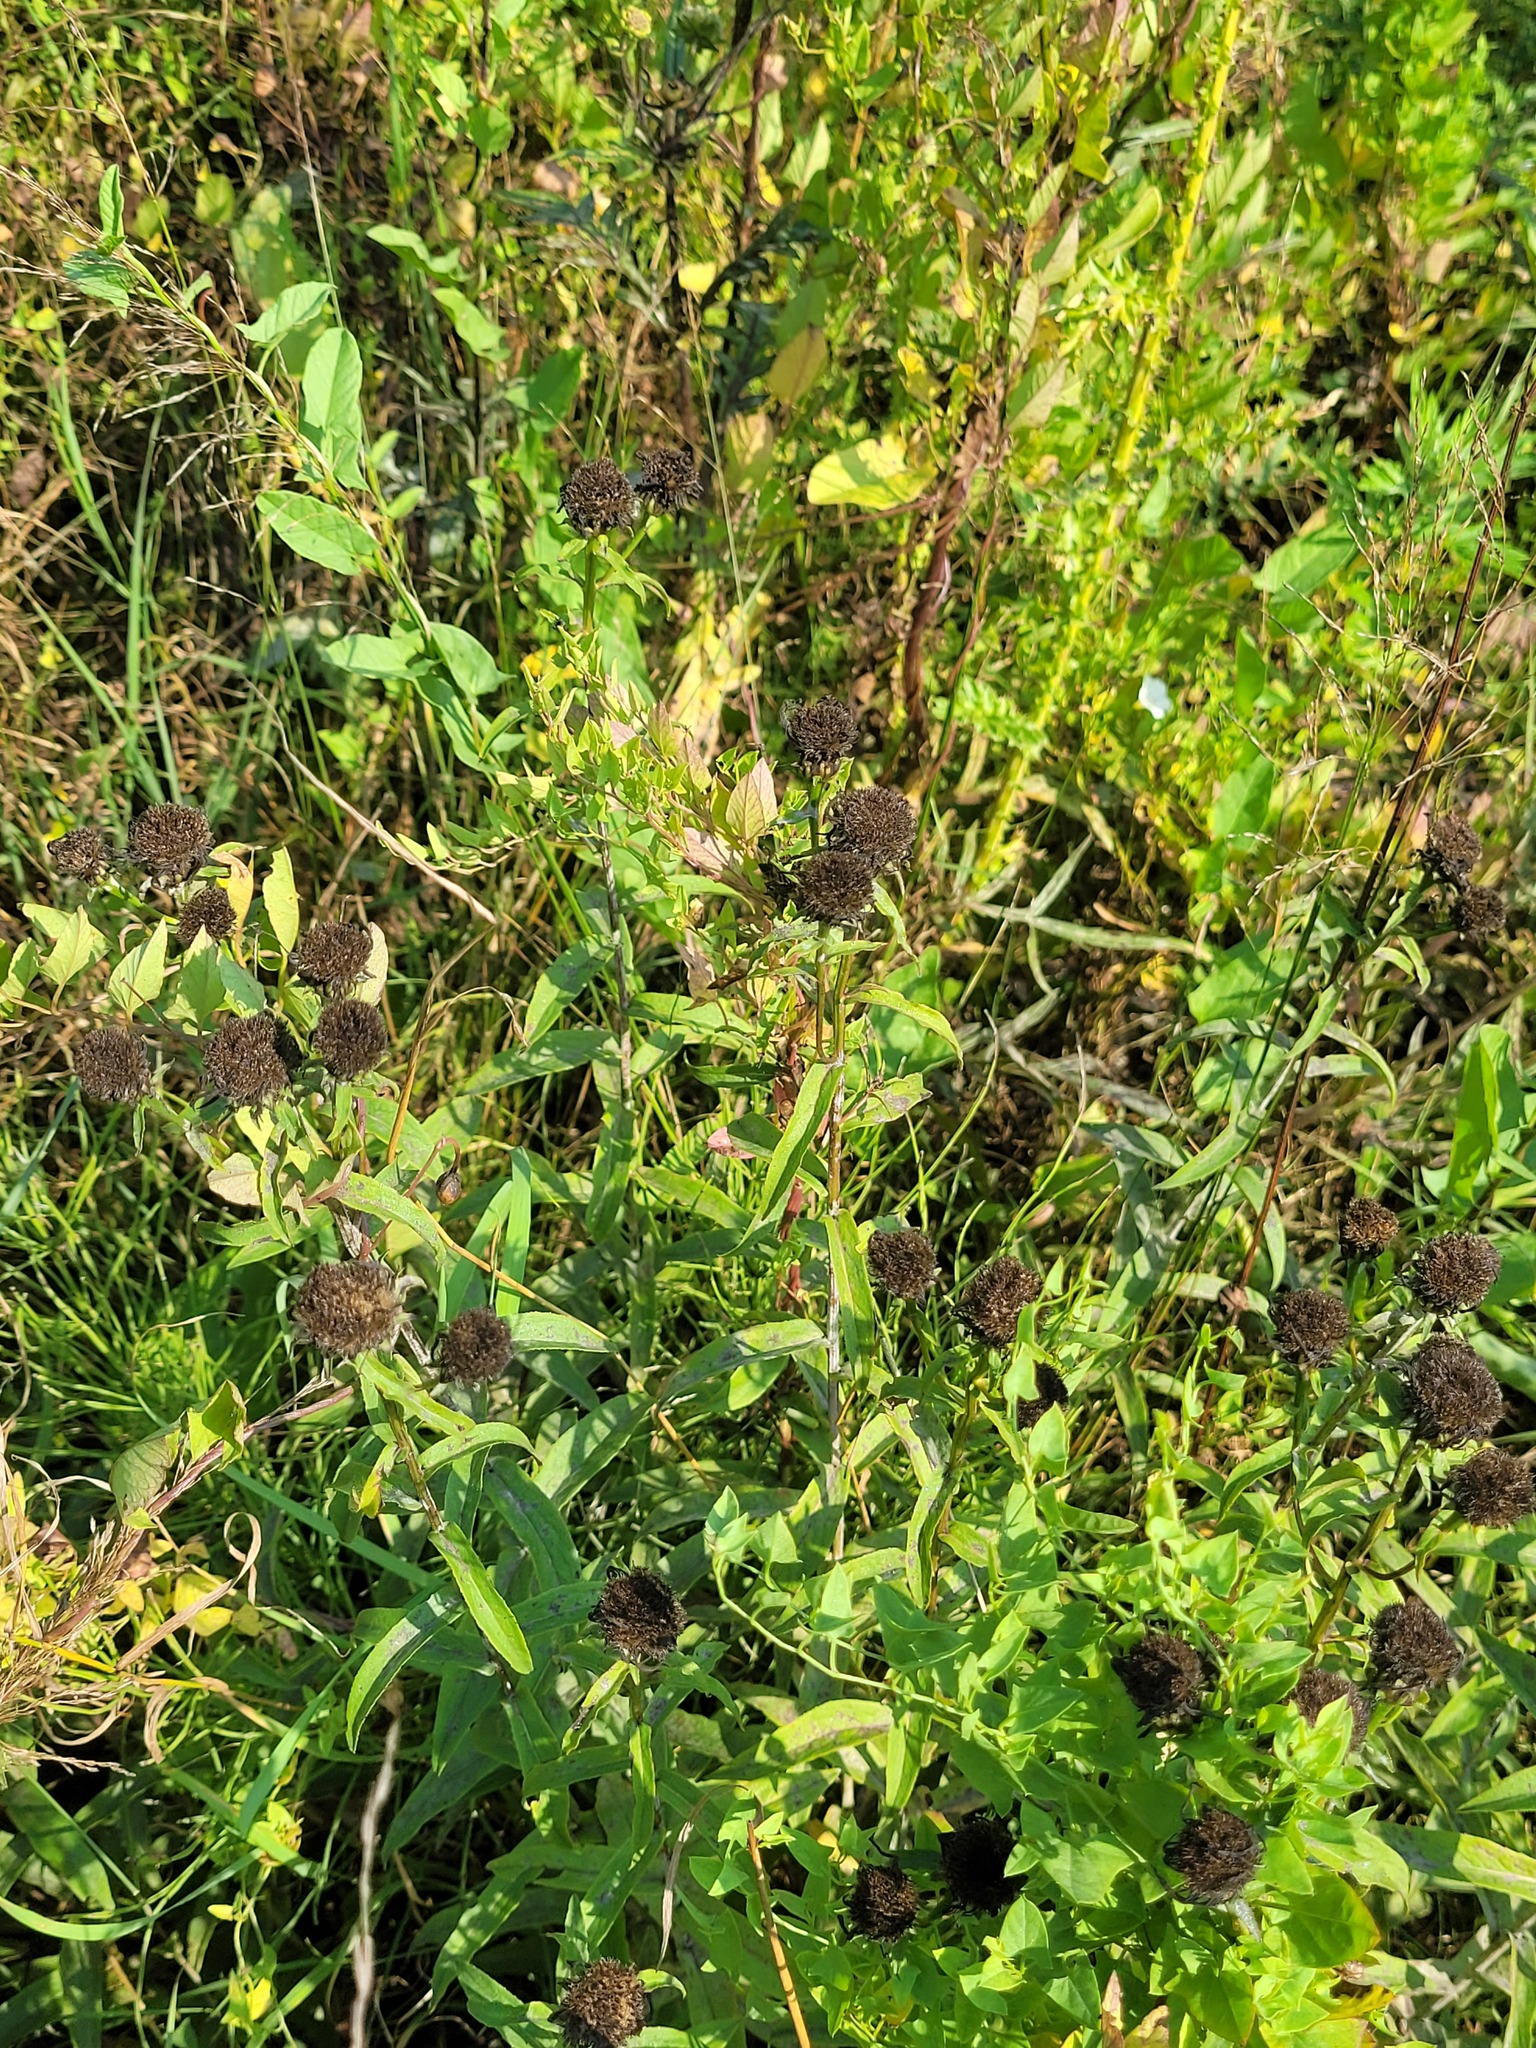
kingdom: Plantae
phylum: Tracheophyta
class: Magnoliopsida
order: Asterales
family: Asteraceae
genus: Pentanema
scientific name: Pentanema salicinum
